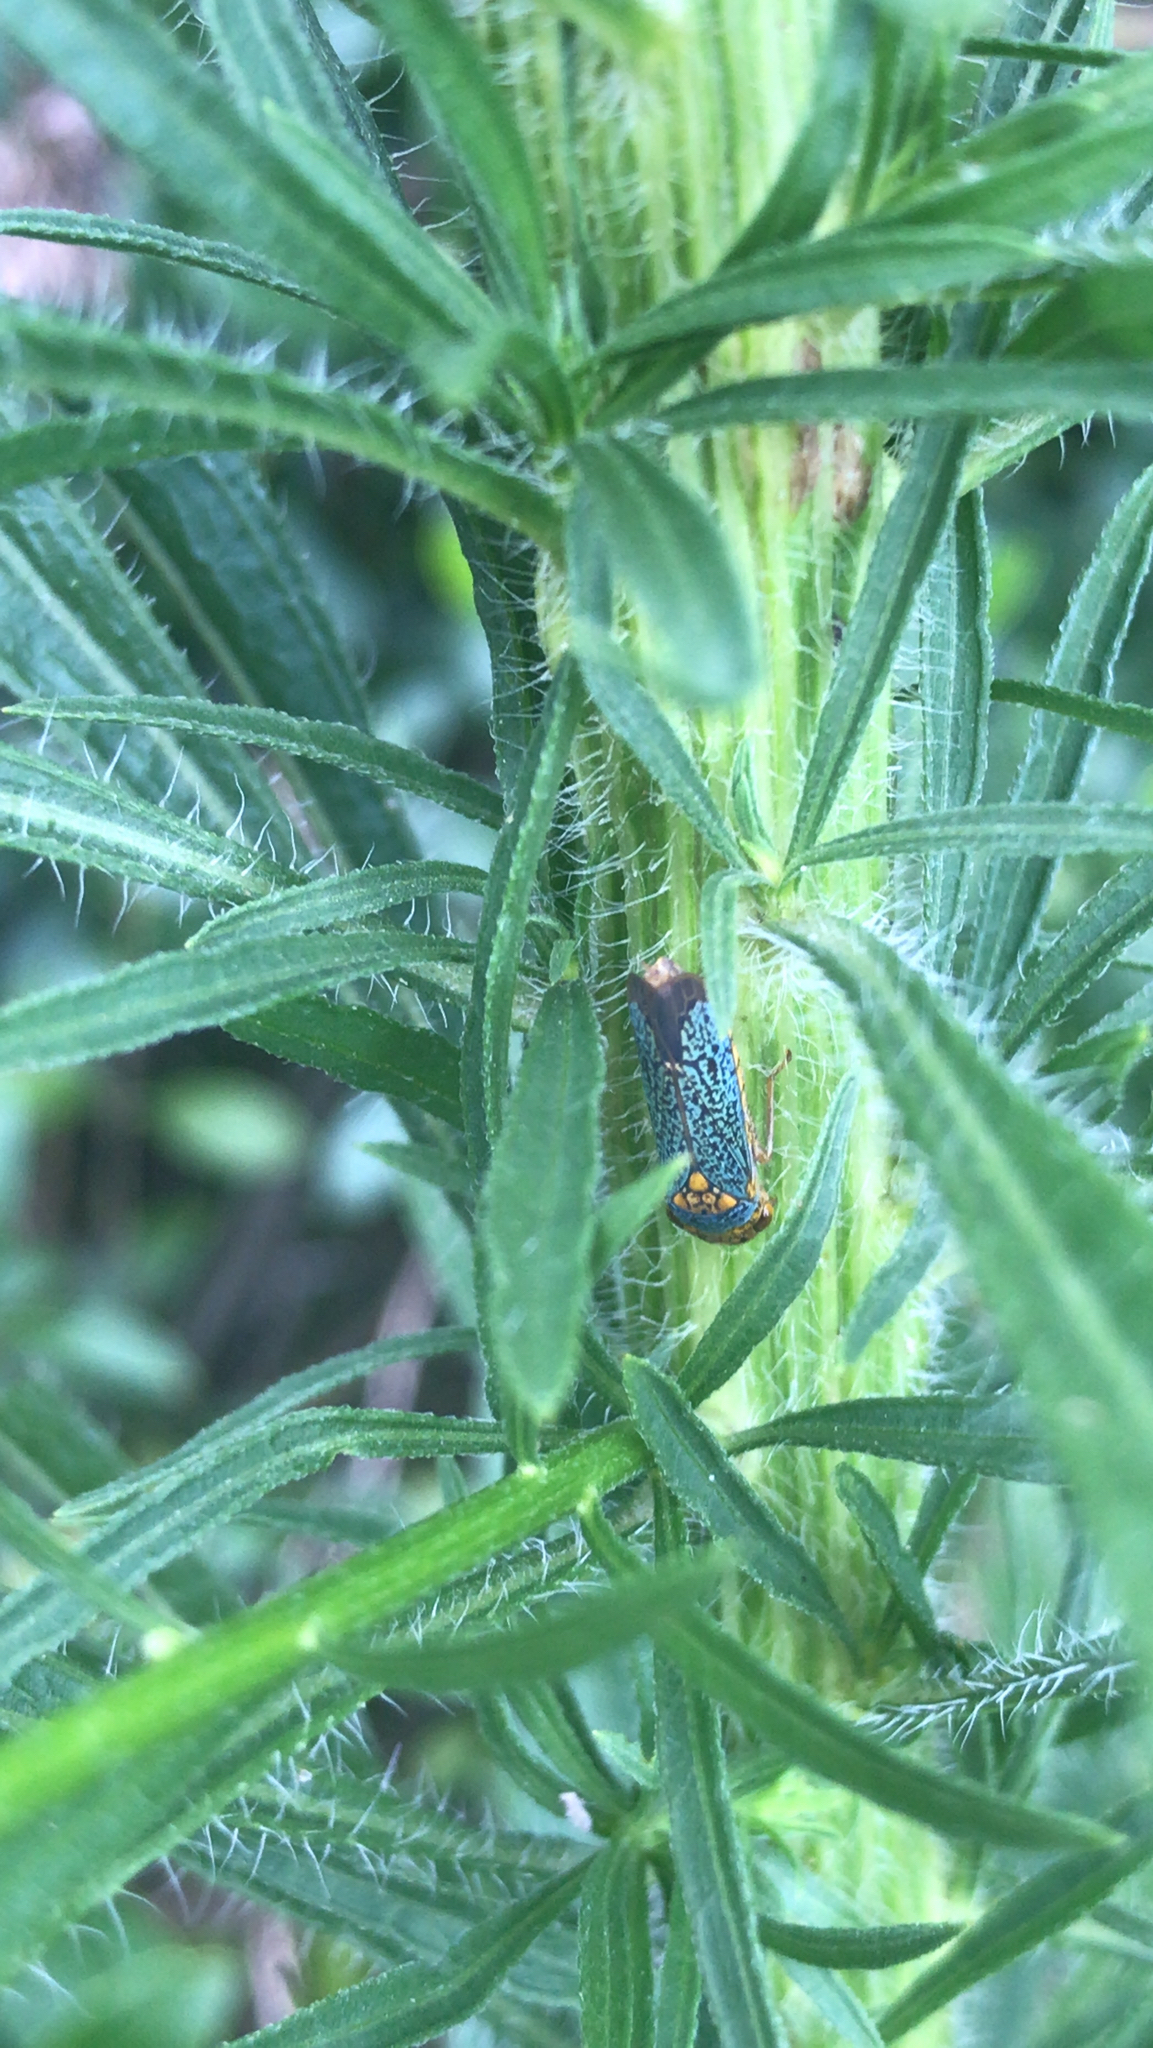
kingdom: Animalia
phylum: Arthropoda
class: Insecta
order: Hemiptera
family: Cicadellidae
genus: Oncometopia
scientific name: Oncometopia orbona
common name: Broad-headed sharpshooter
